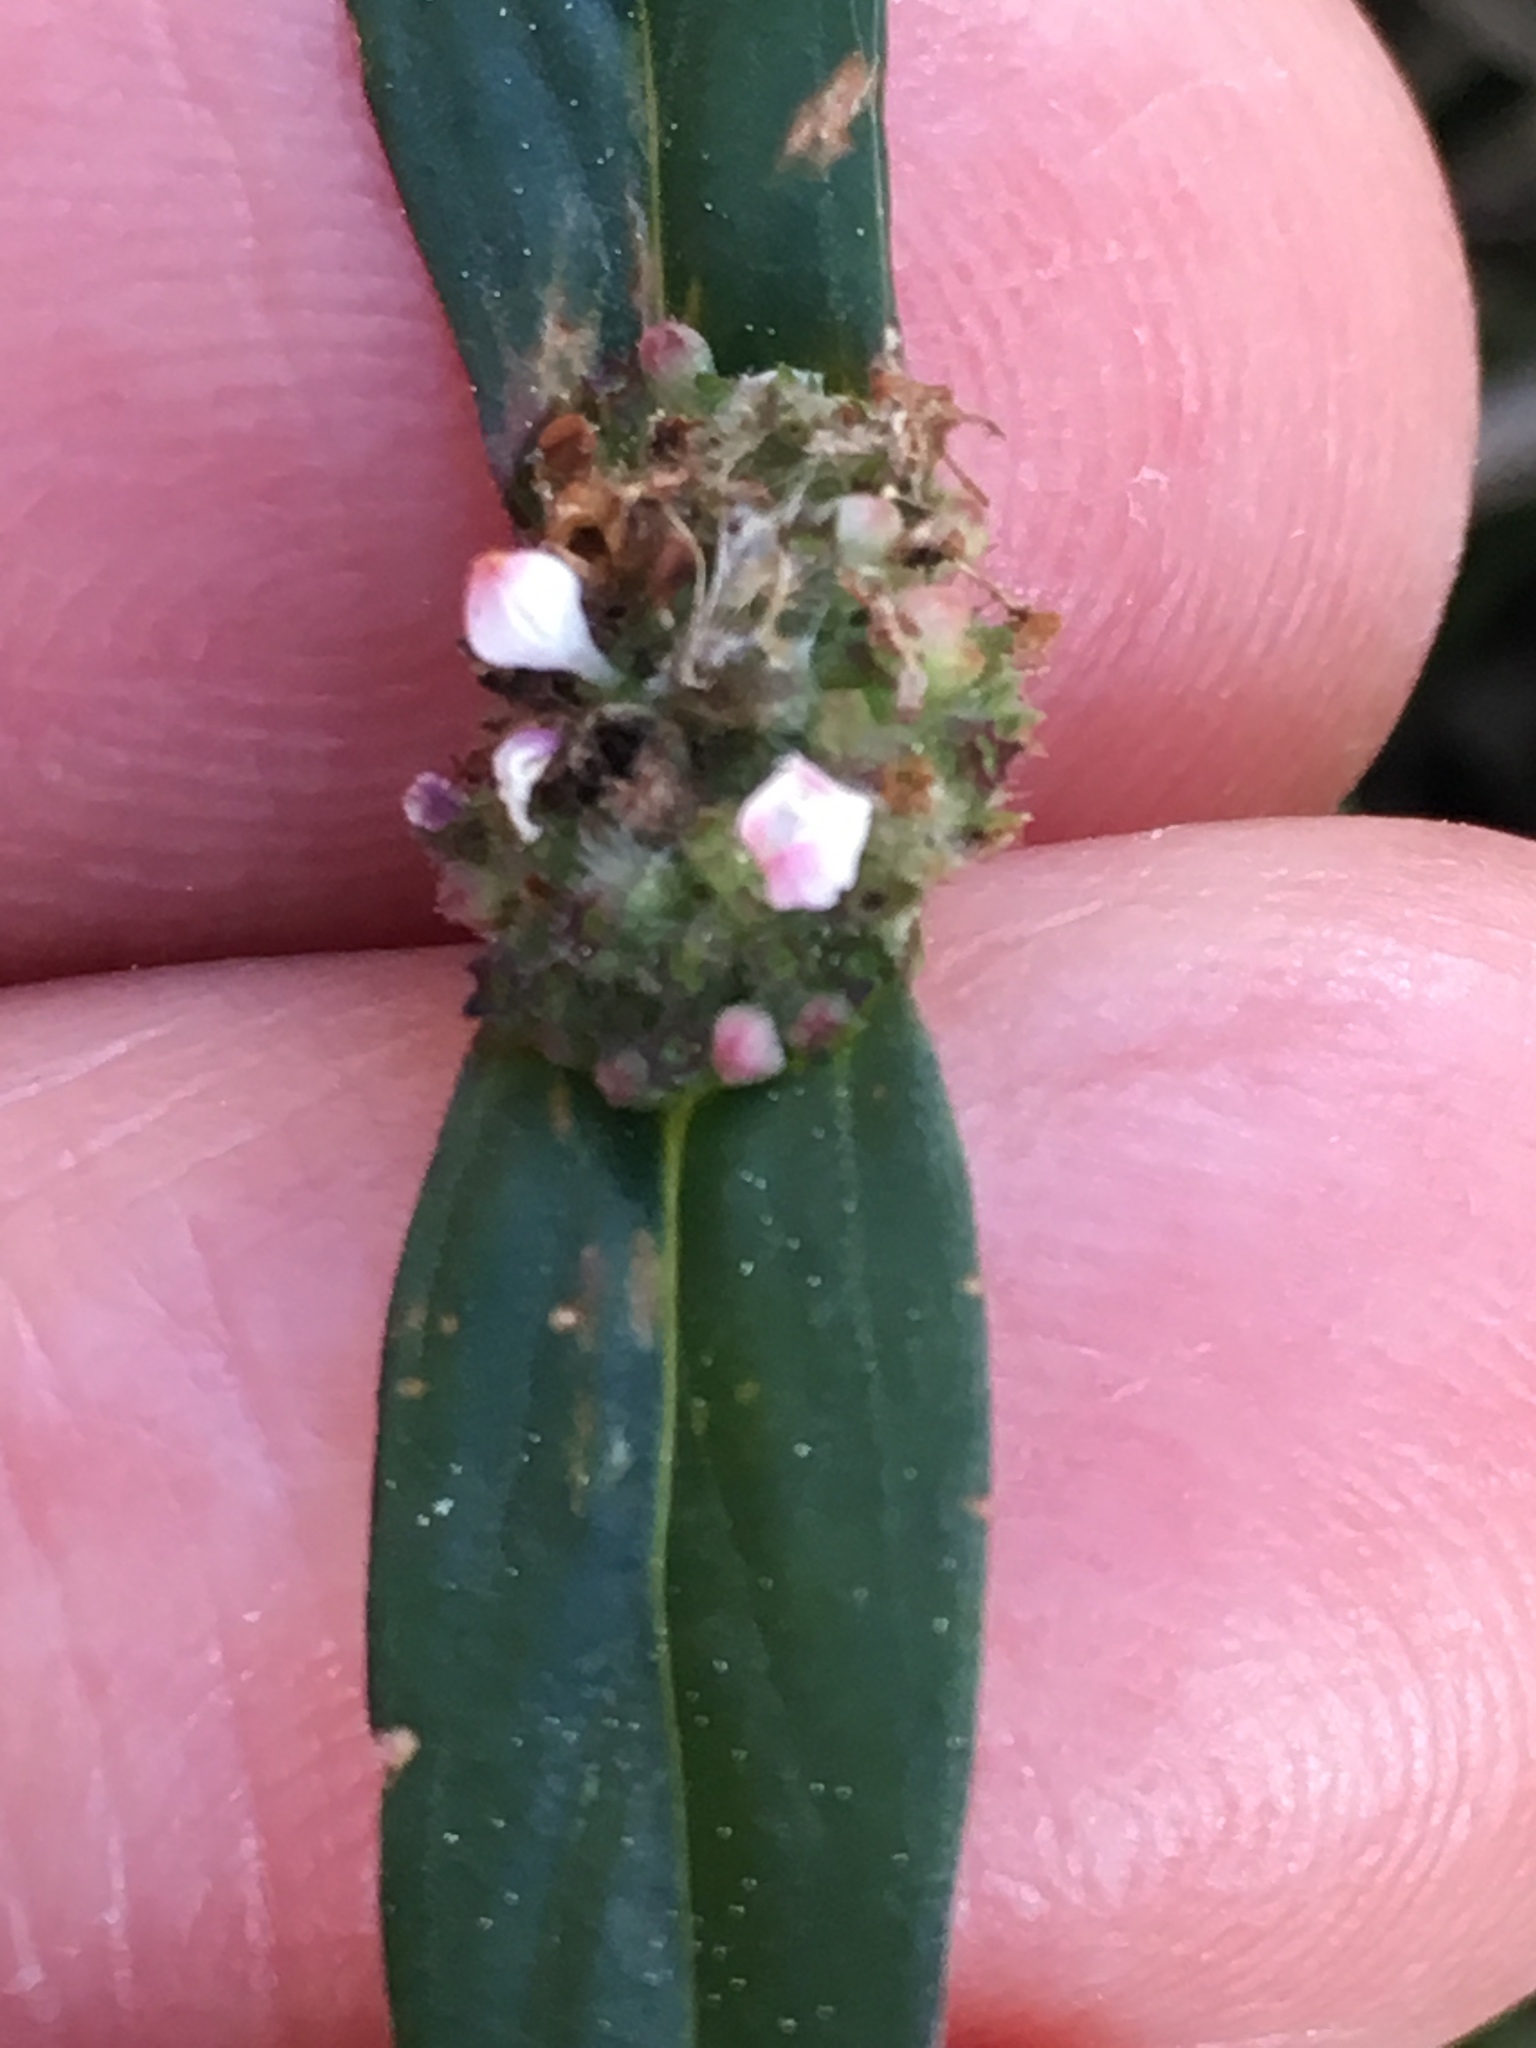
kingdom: Plantae
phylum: Tracheophyta
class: Magnoliopsida
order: Gentianales
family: Rubiaceae
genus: Spermacoce
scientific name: Spermacoce remota
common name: Woodland false buttonweed
